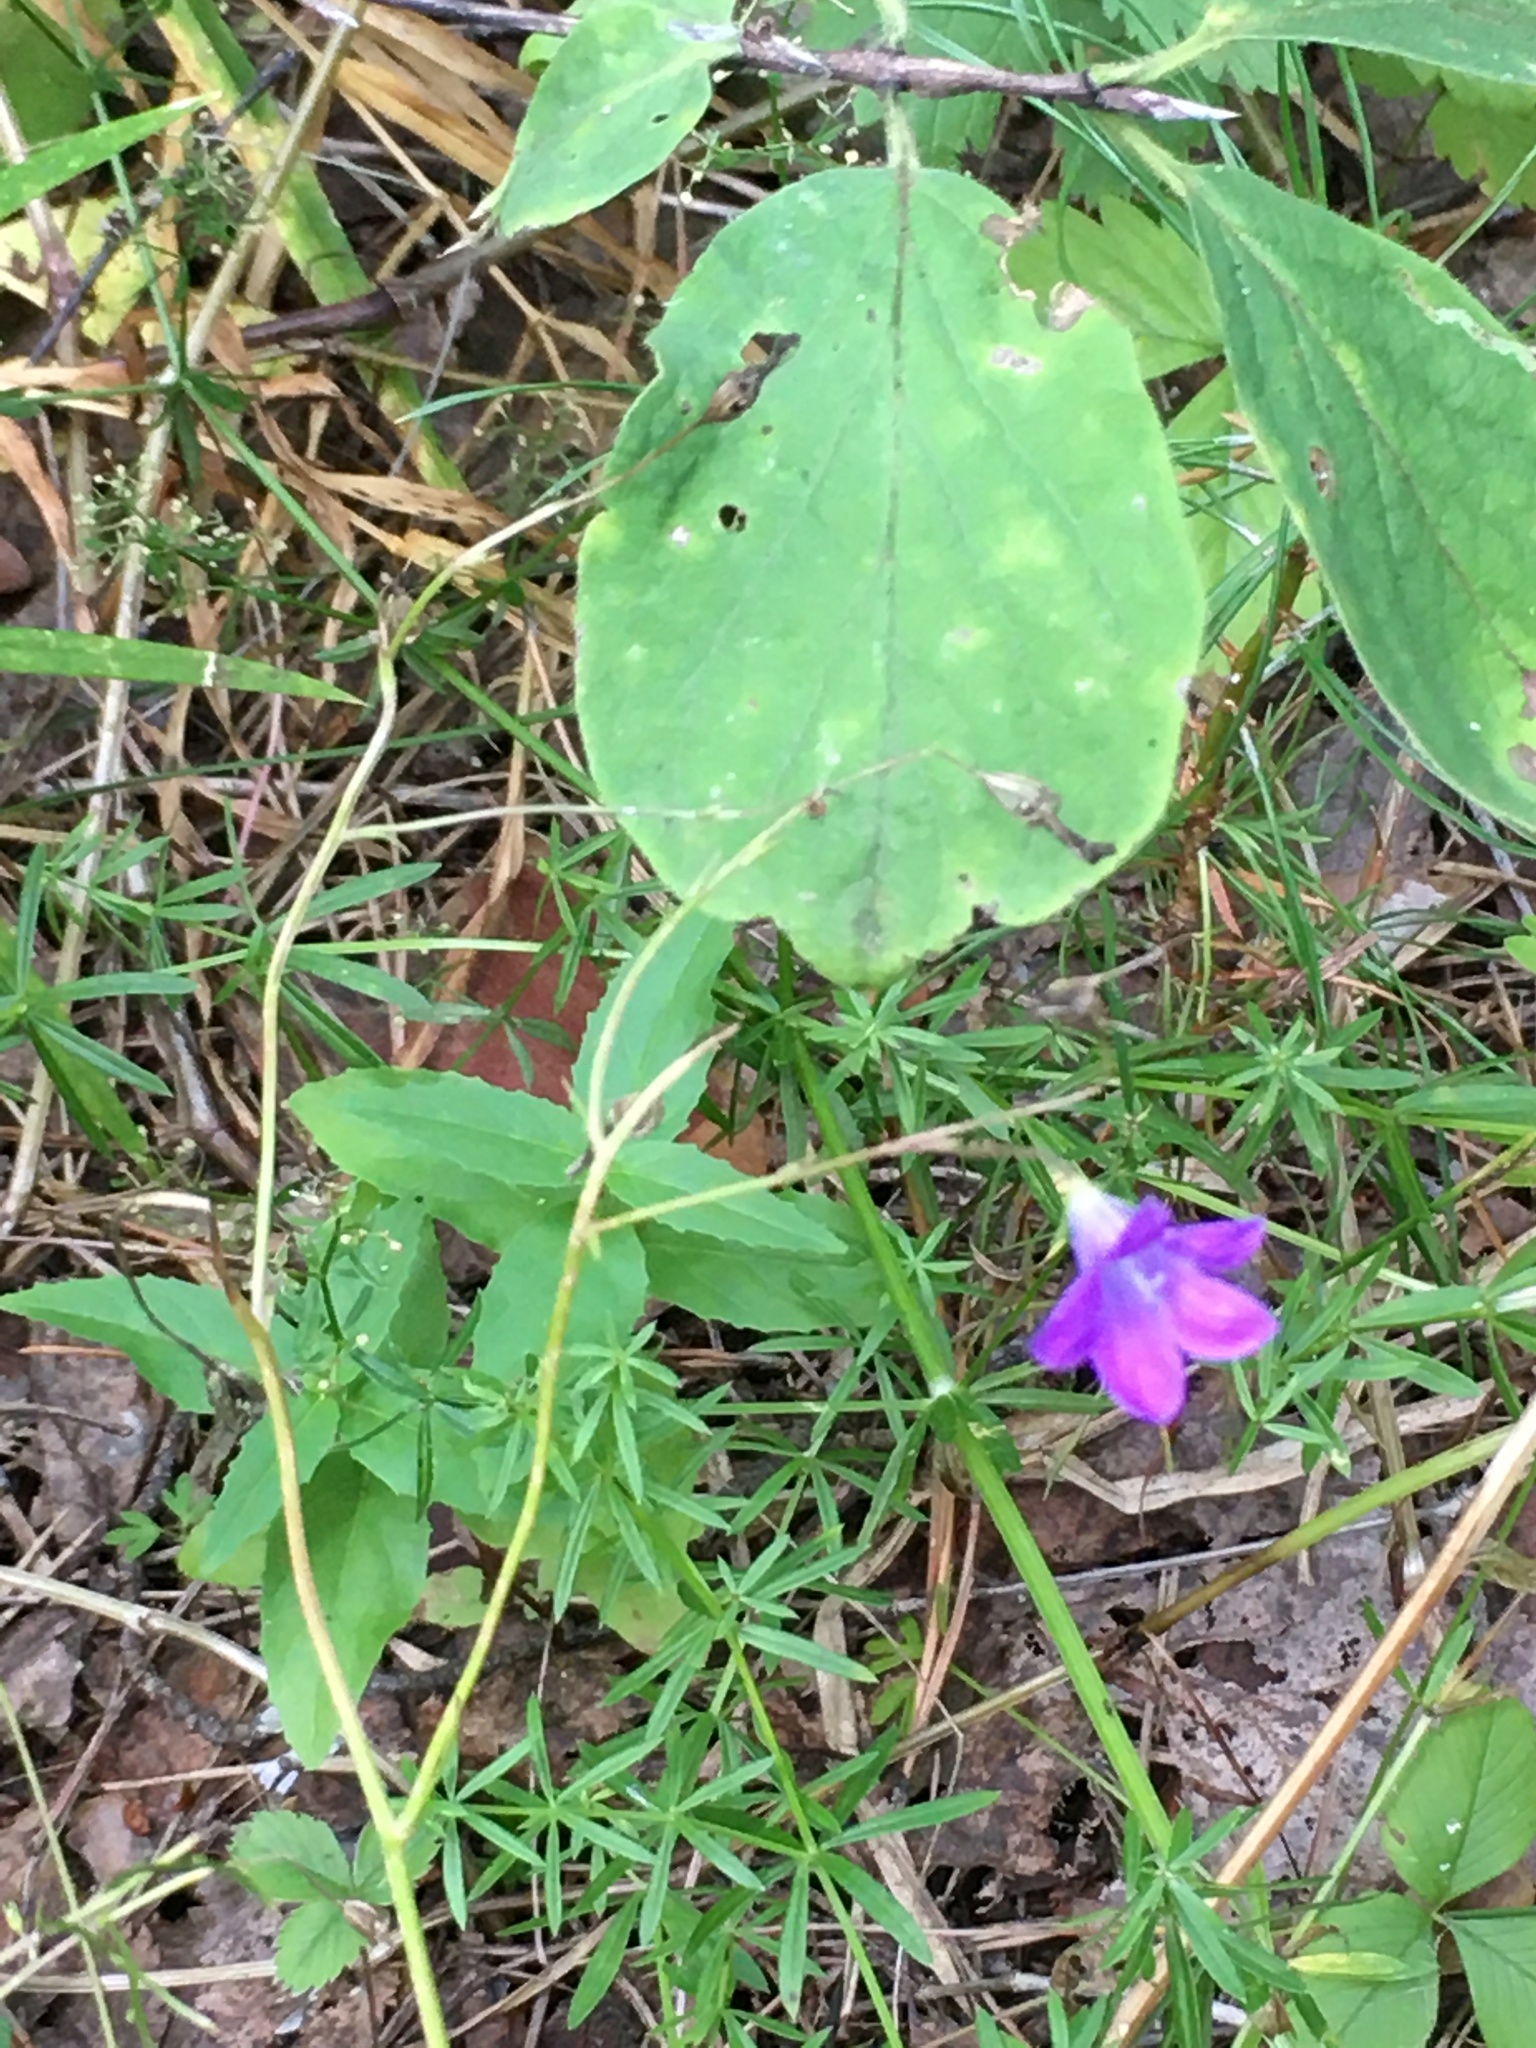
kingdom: Plantae
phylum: Tracheophyta
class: Magnoliopsida
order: Asterales
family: Campanulaceae
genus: Campanula
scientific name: Campanula patula
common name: Spreading bellflower
